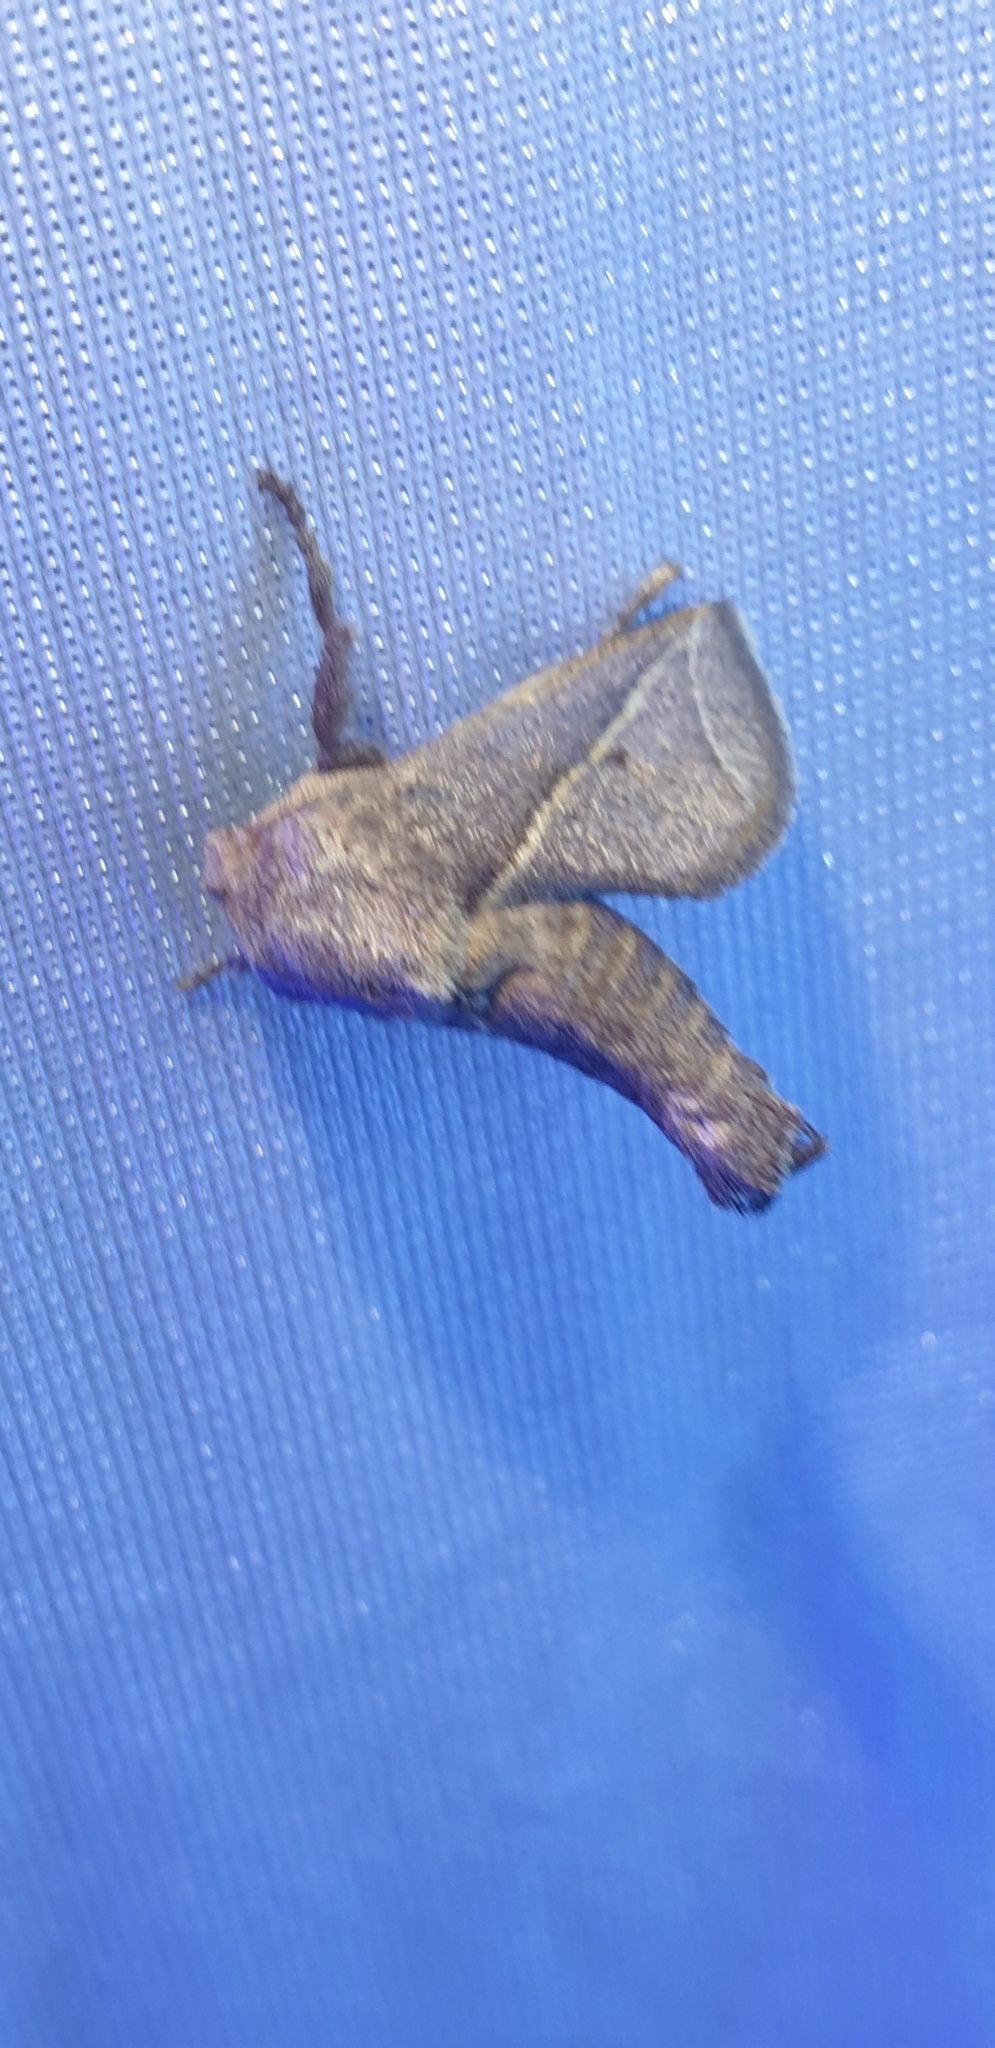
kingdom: Animalia
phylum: Arthropoda
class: Insecta
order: Lepidoptera
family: Limacodidae
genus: Anaxidia
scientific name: Anaxidia lozogramma
